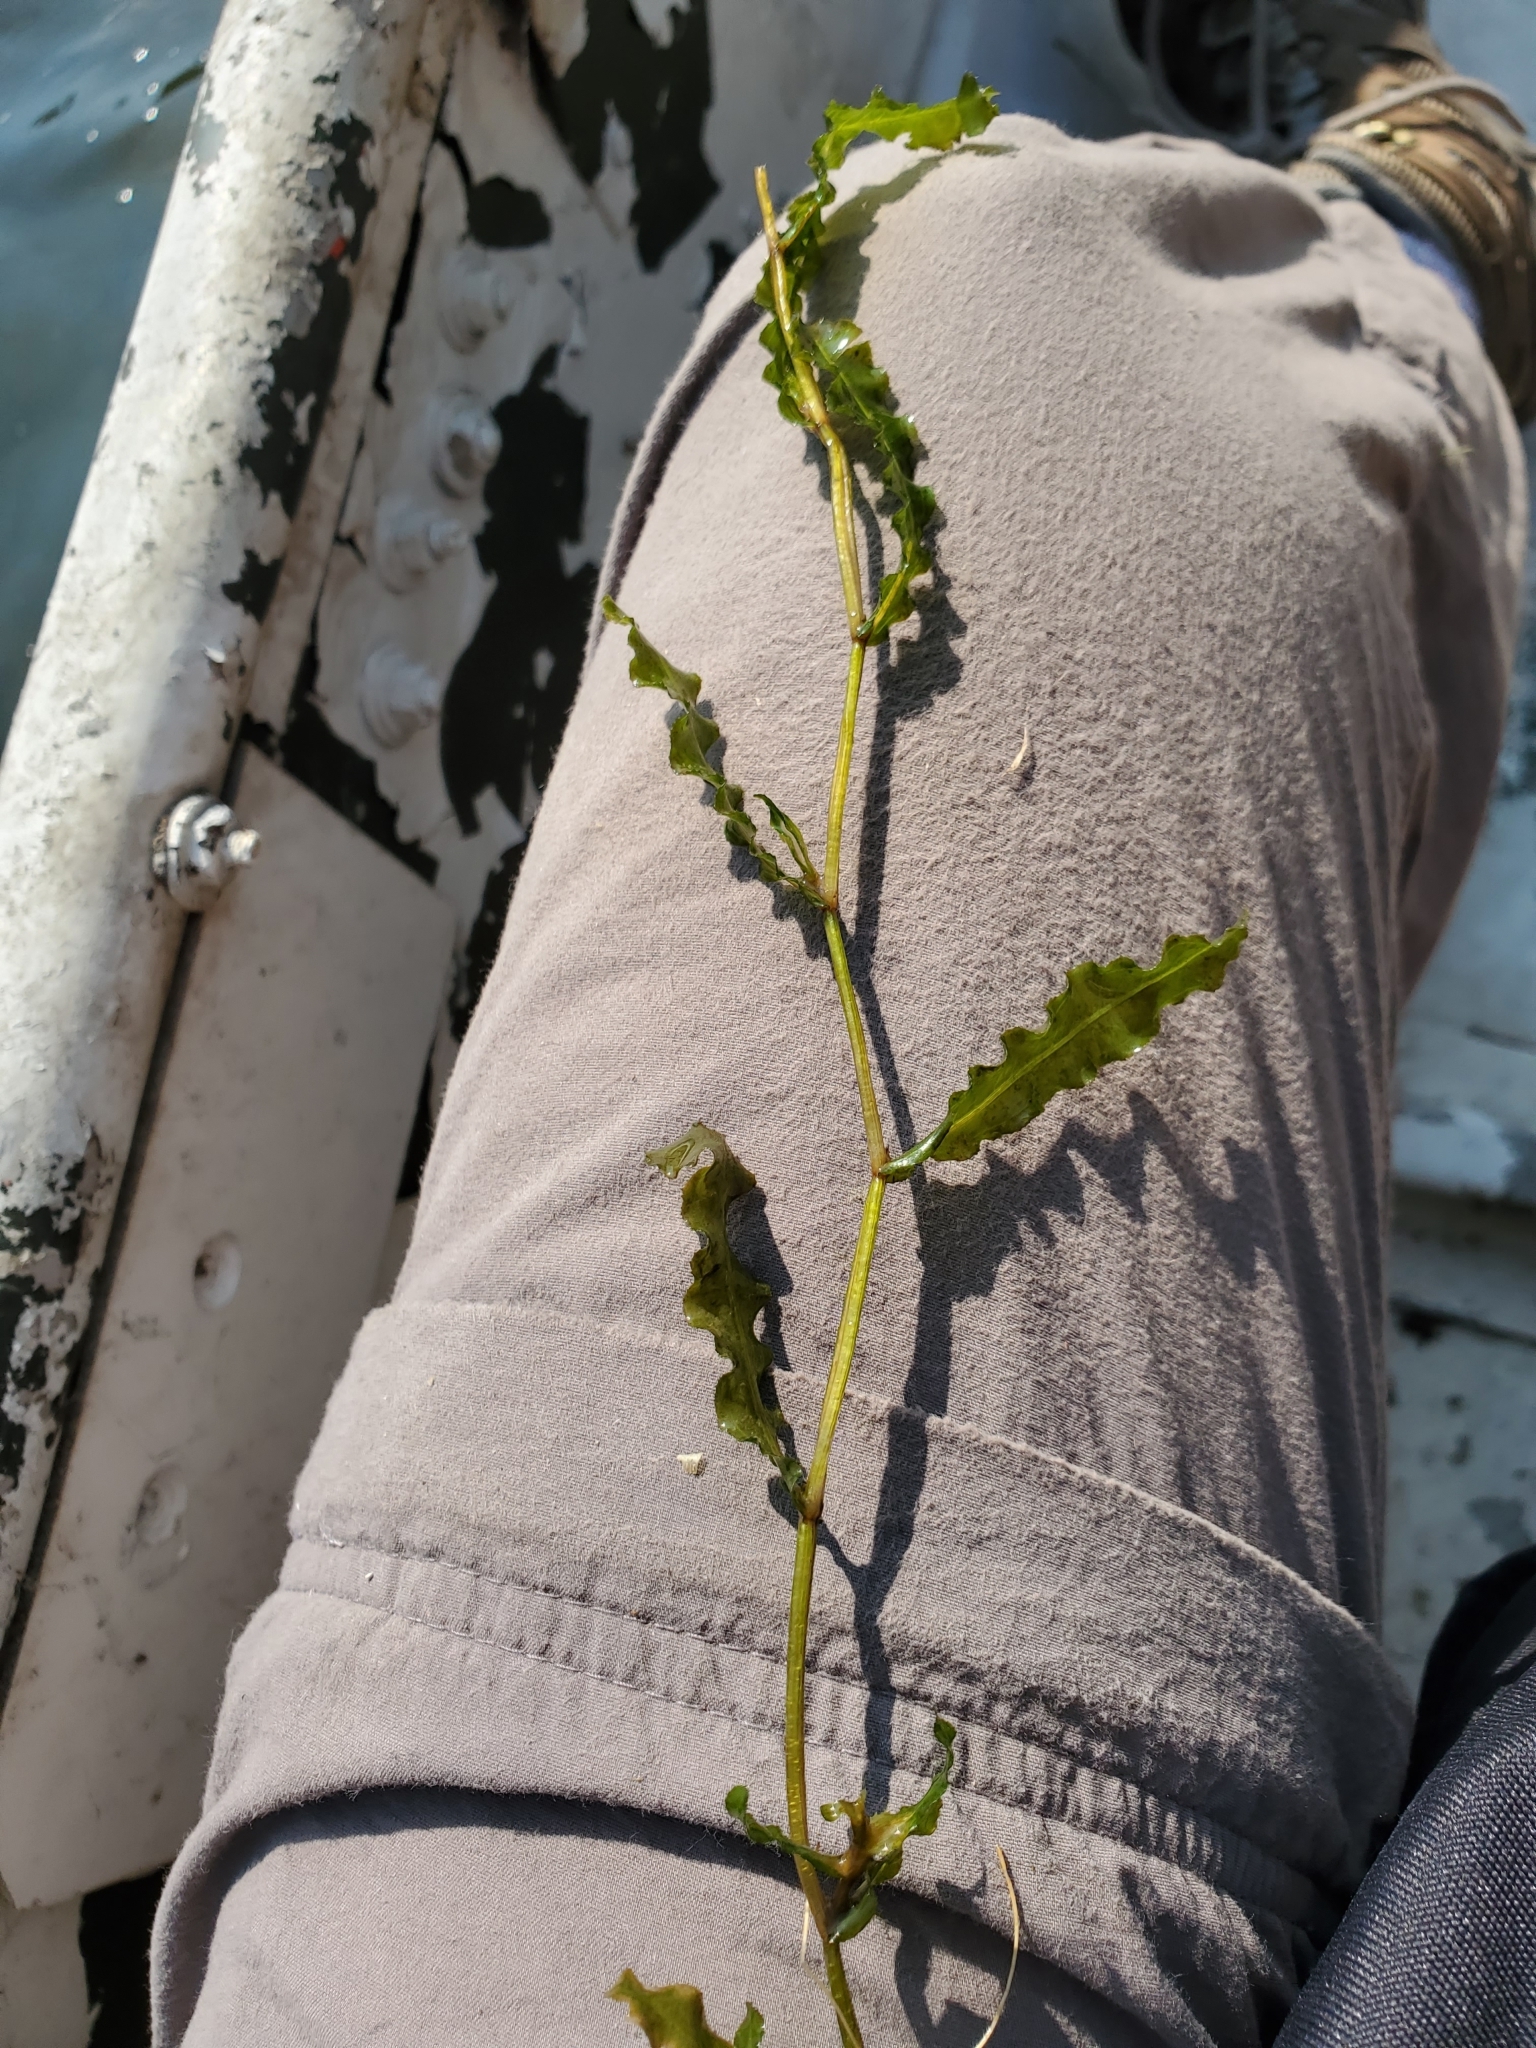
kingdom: Plantae
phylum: Tracheophyta
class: Liliopsida
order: Alismatales
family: Potamogetonaceae
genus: Potamogeton
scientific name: Potamogeton crispus
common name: Curled pondweed
